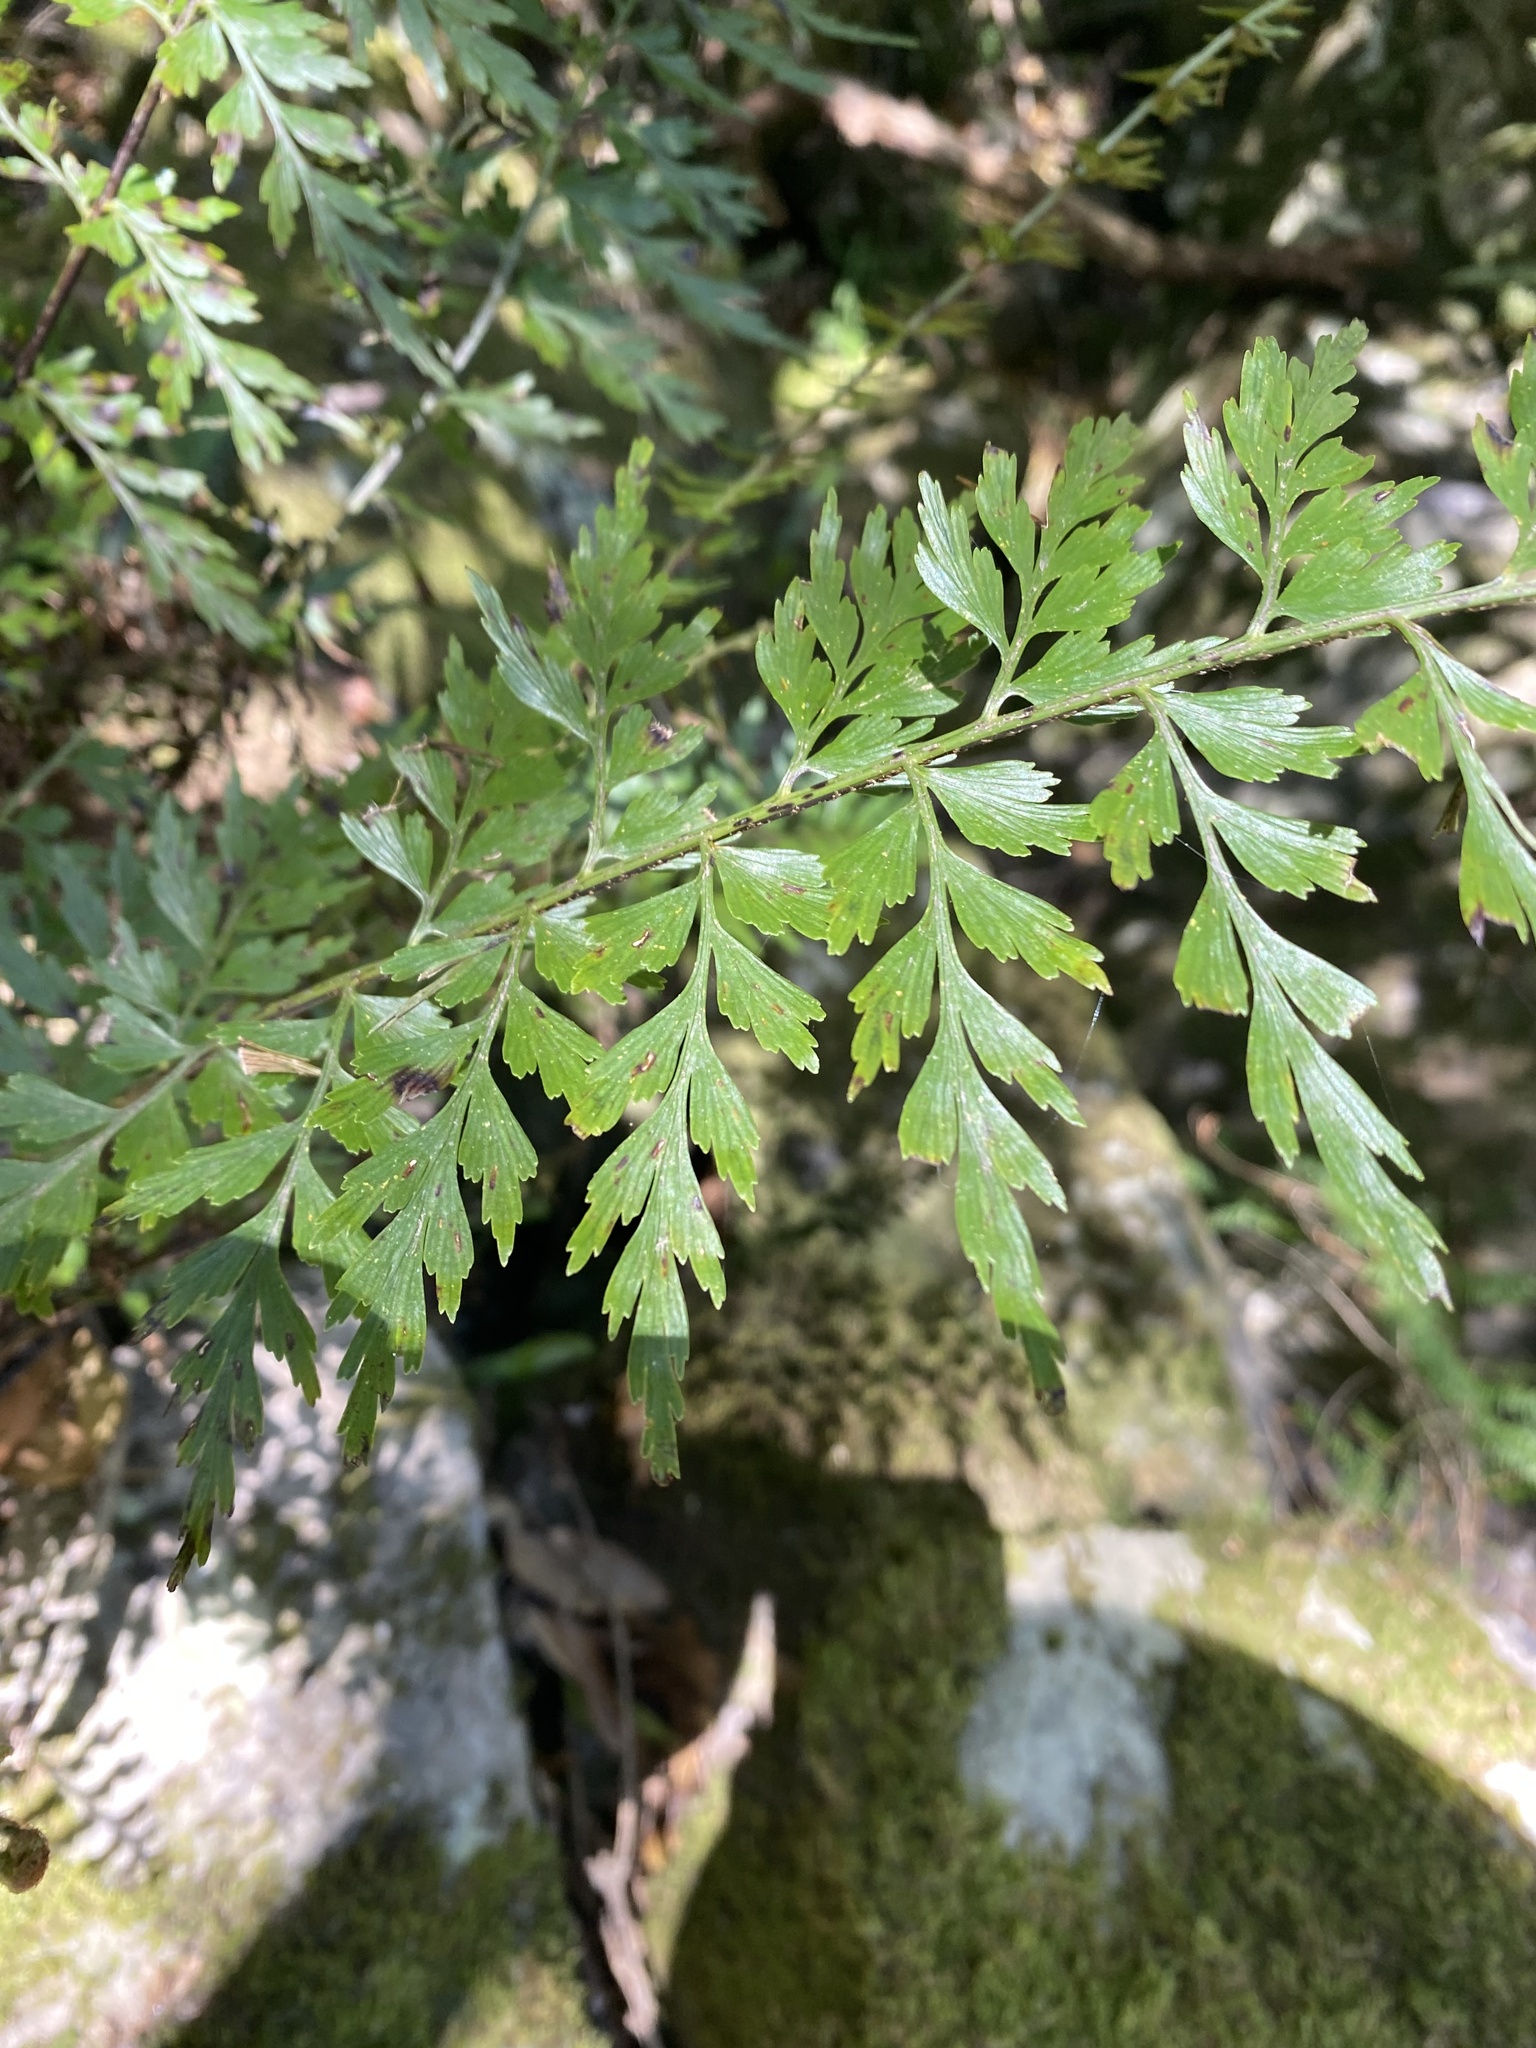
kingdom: Plantae
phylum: Tracheophyta
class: Polypodiopsida
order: Polypodiales
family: Aspleniaceae
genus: Asplenium
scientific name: Asplenium aethiopicum
